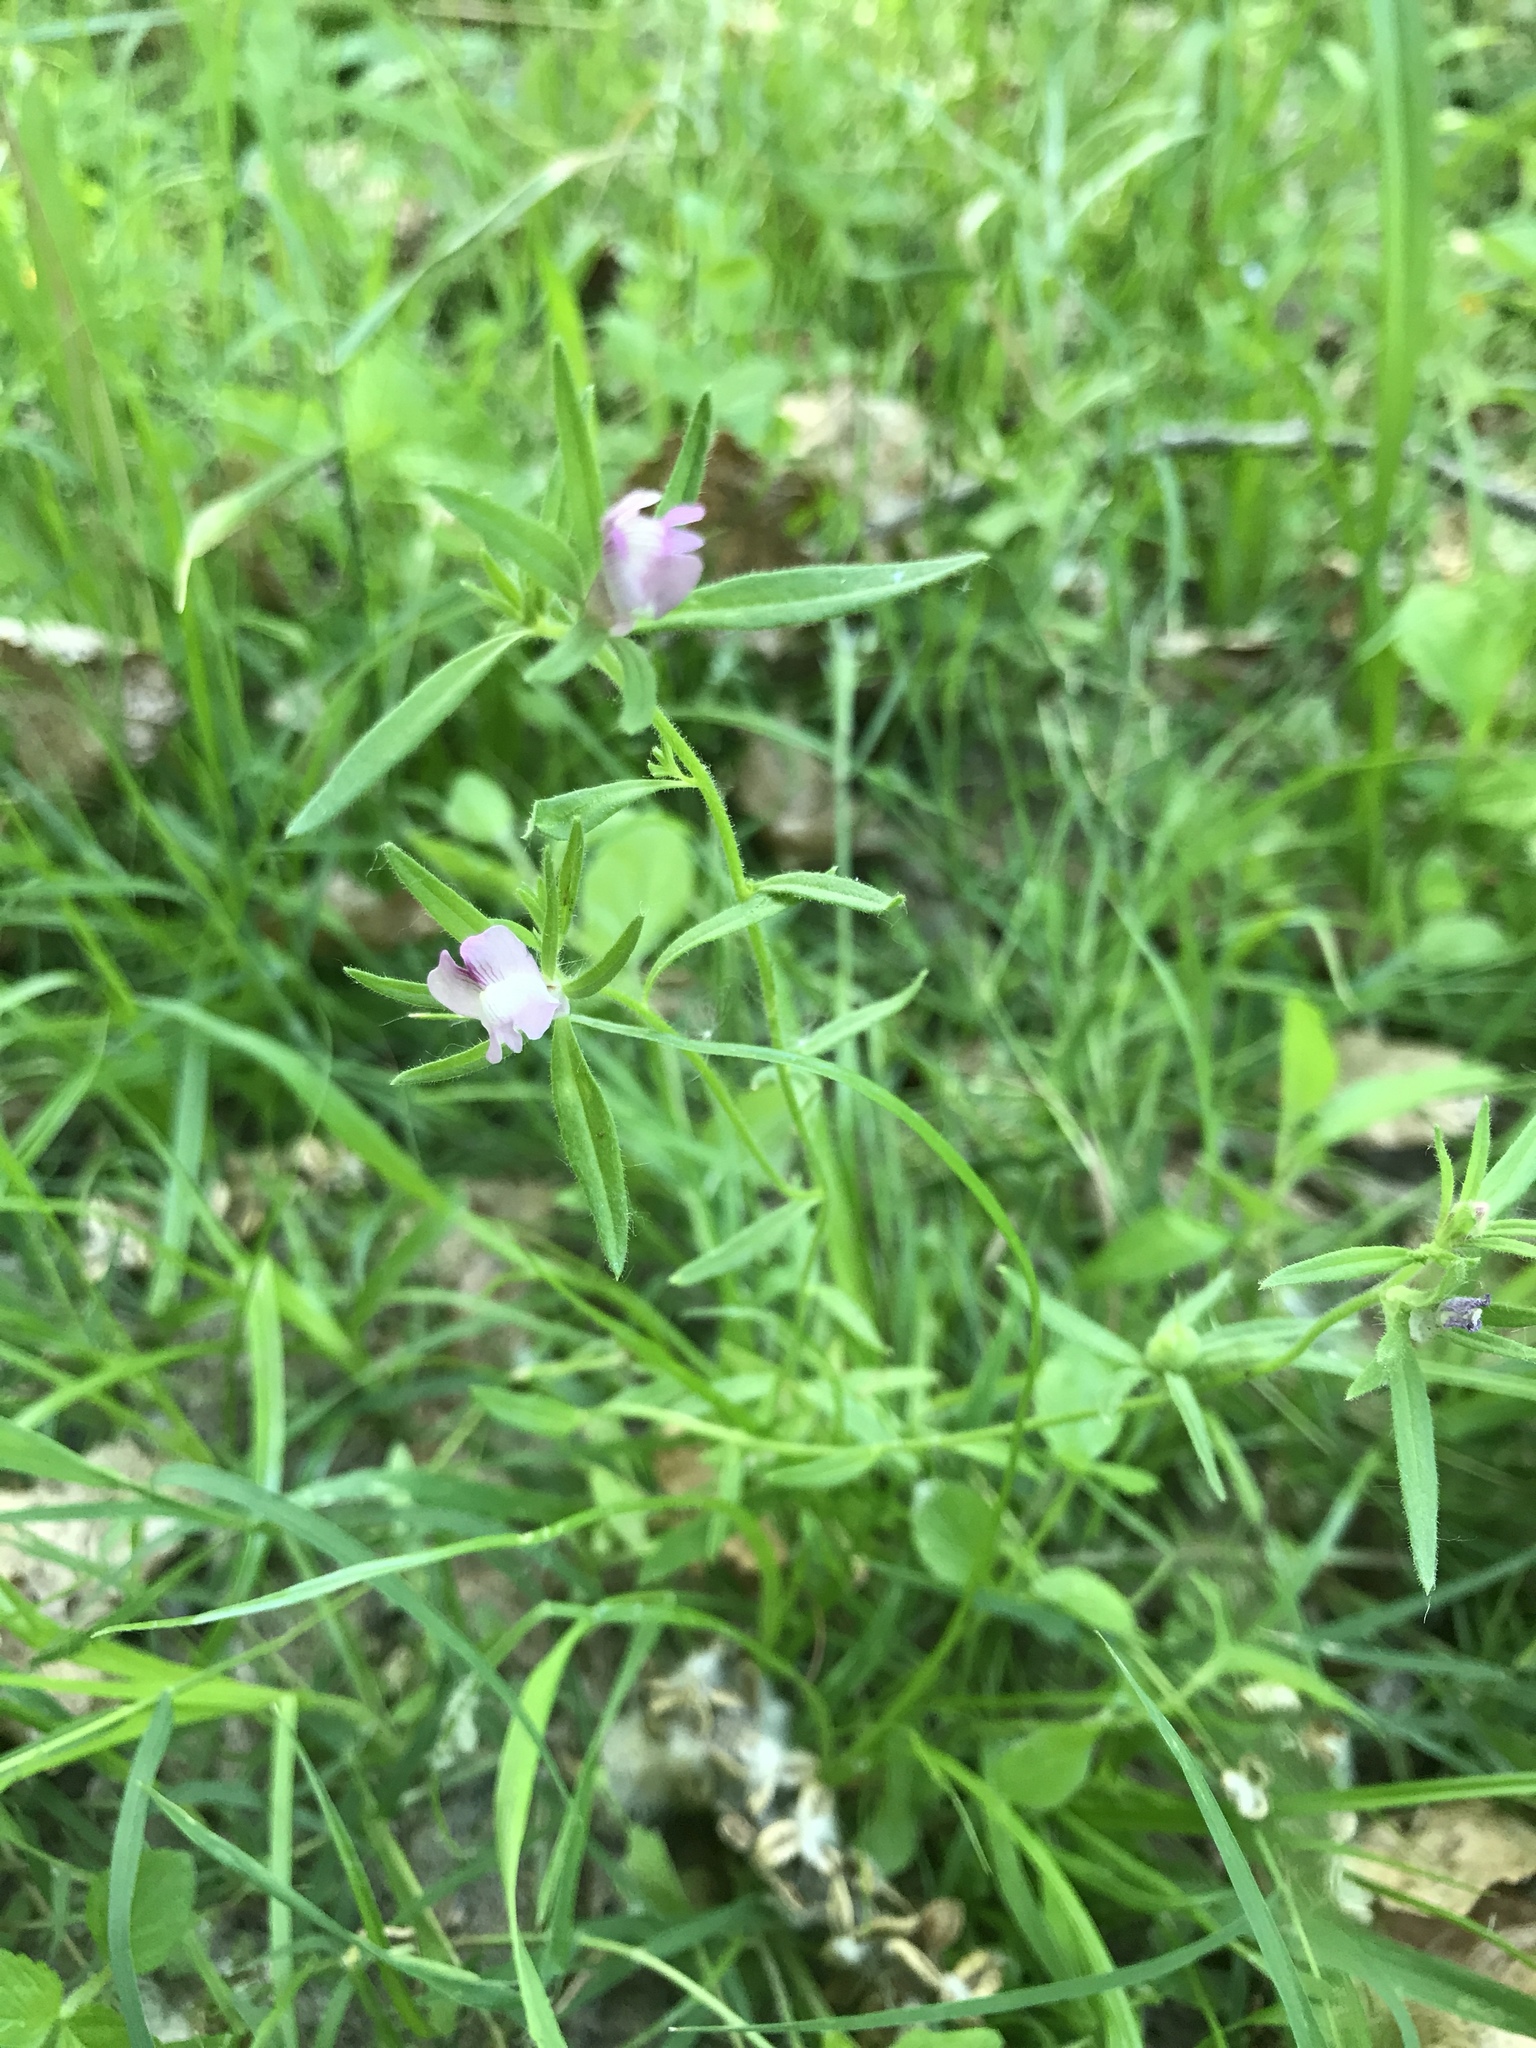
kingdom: Plantae
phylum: Tracheophyta
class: Magnoliopsida
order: Lamiales
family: Plantaginaceae
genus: Misopates
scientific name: Misopates orontium
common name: Weasel's-snout
